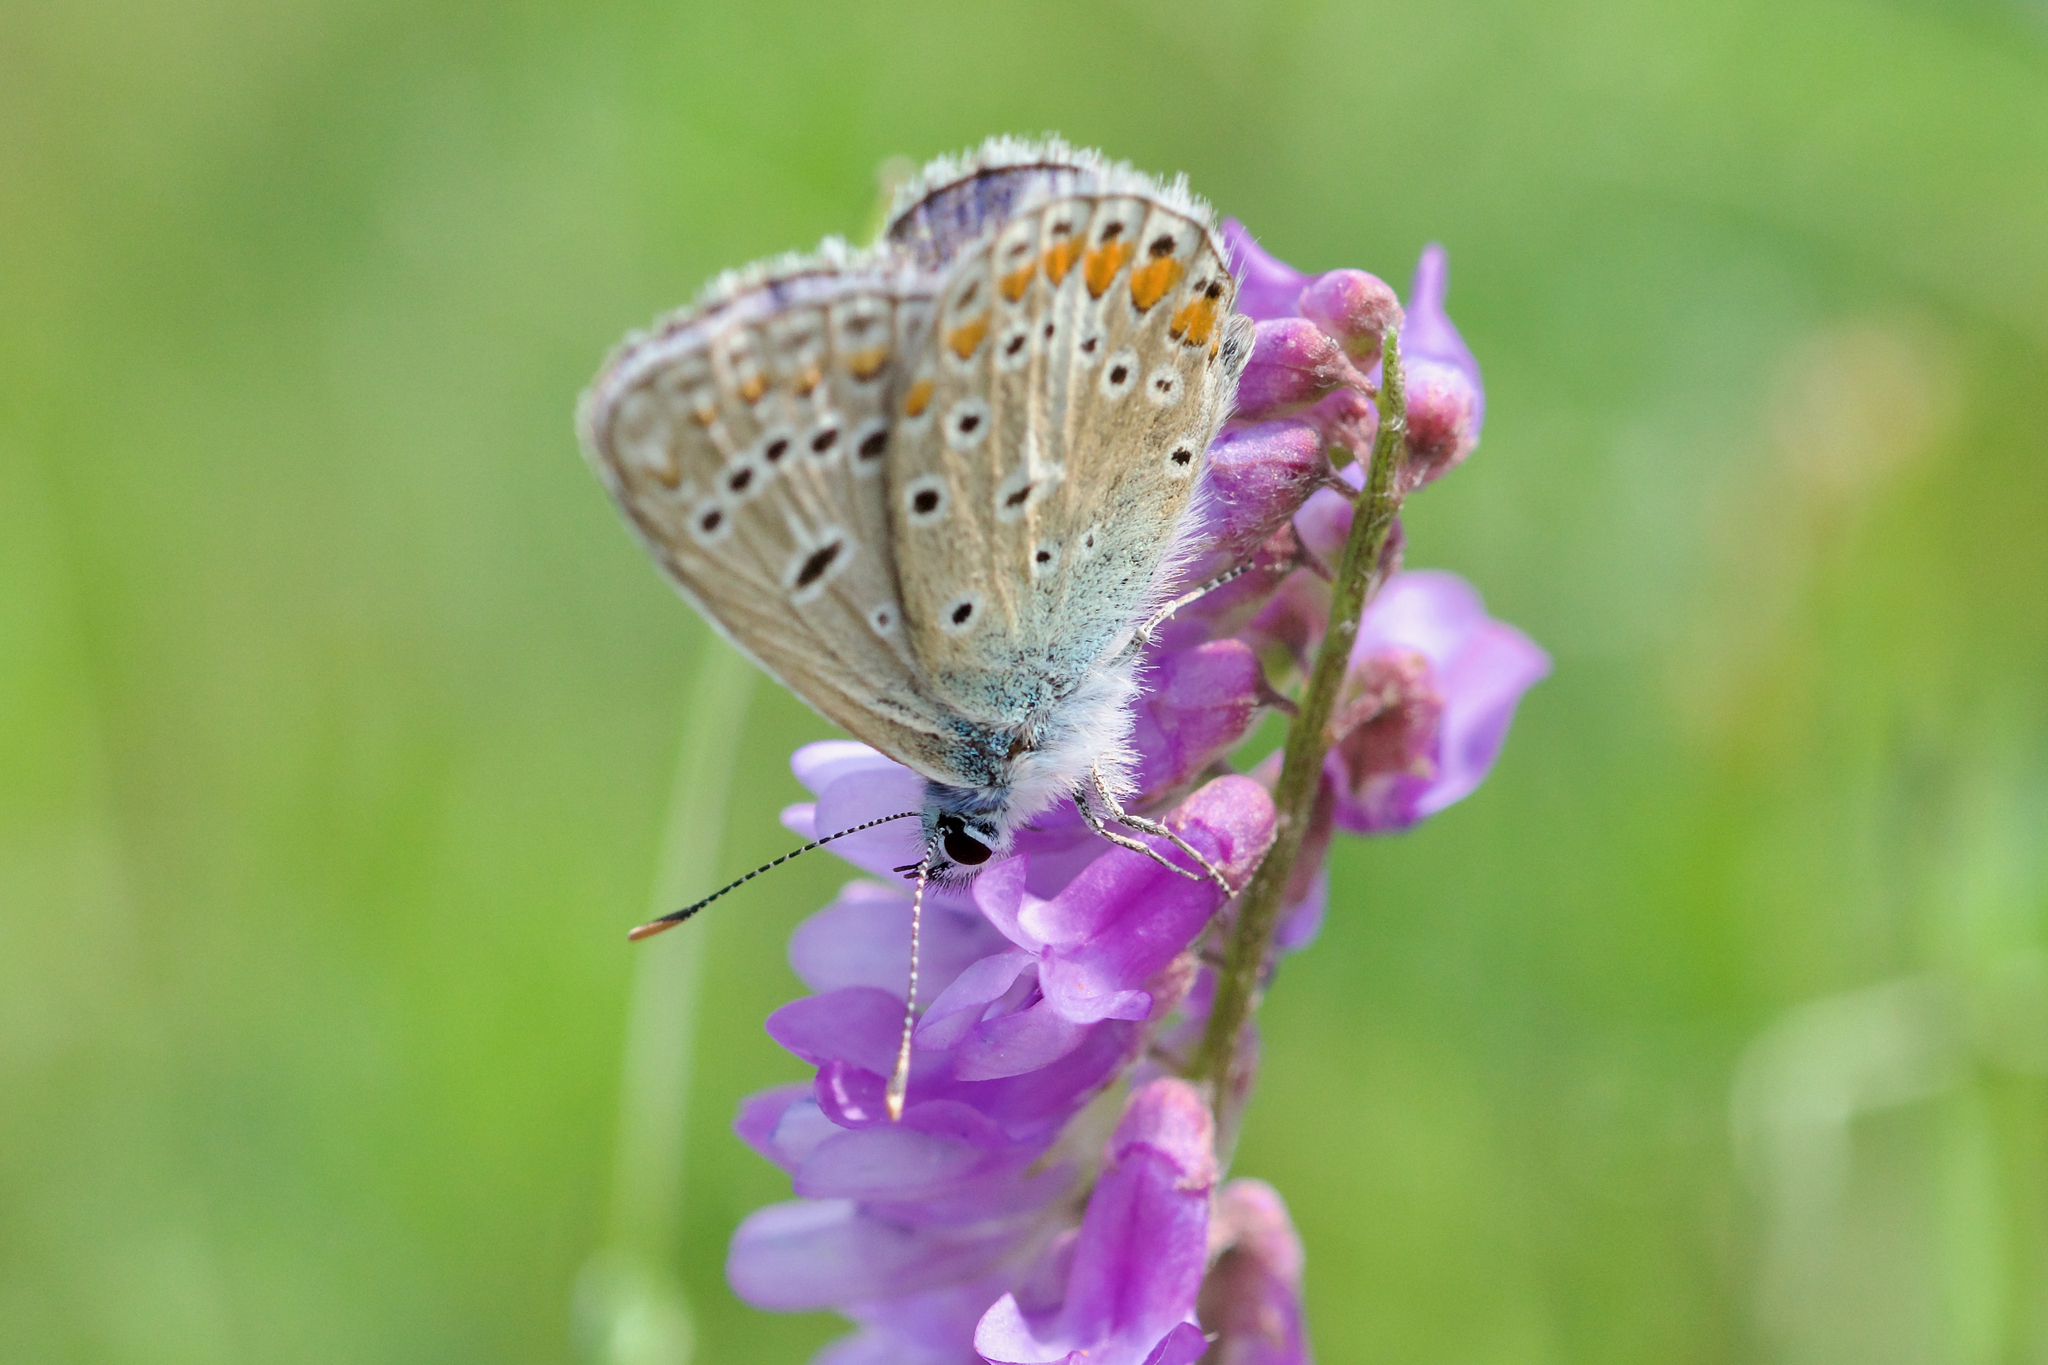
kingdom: Animalia
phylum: Arthropoda
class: Insecta
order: Lepidoptera
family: Lycaenidae
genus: Polyommatus
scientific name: Polyommatus icarus
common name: Common blue
